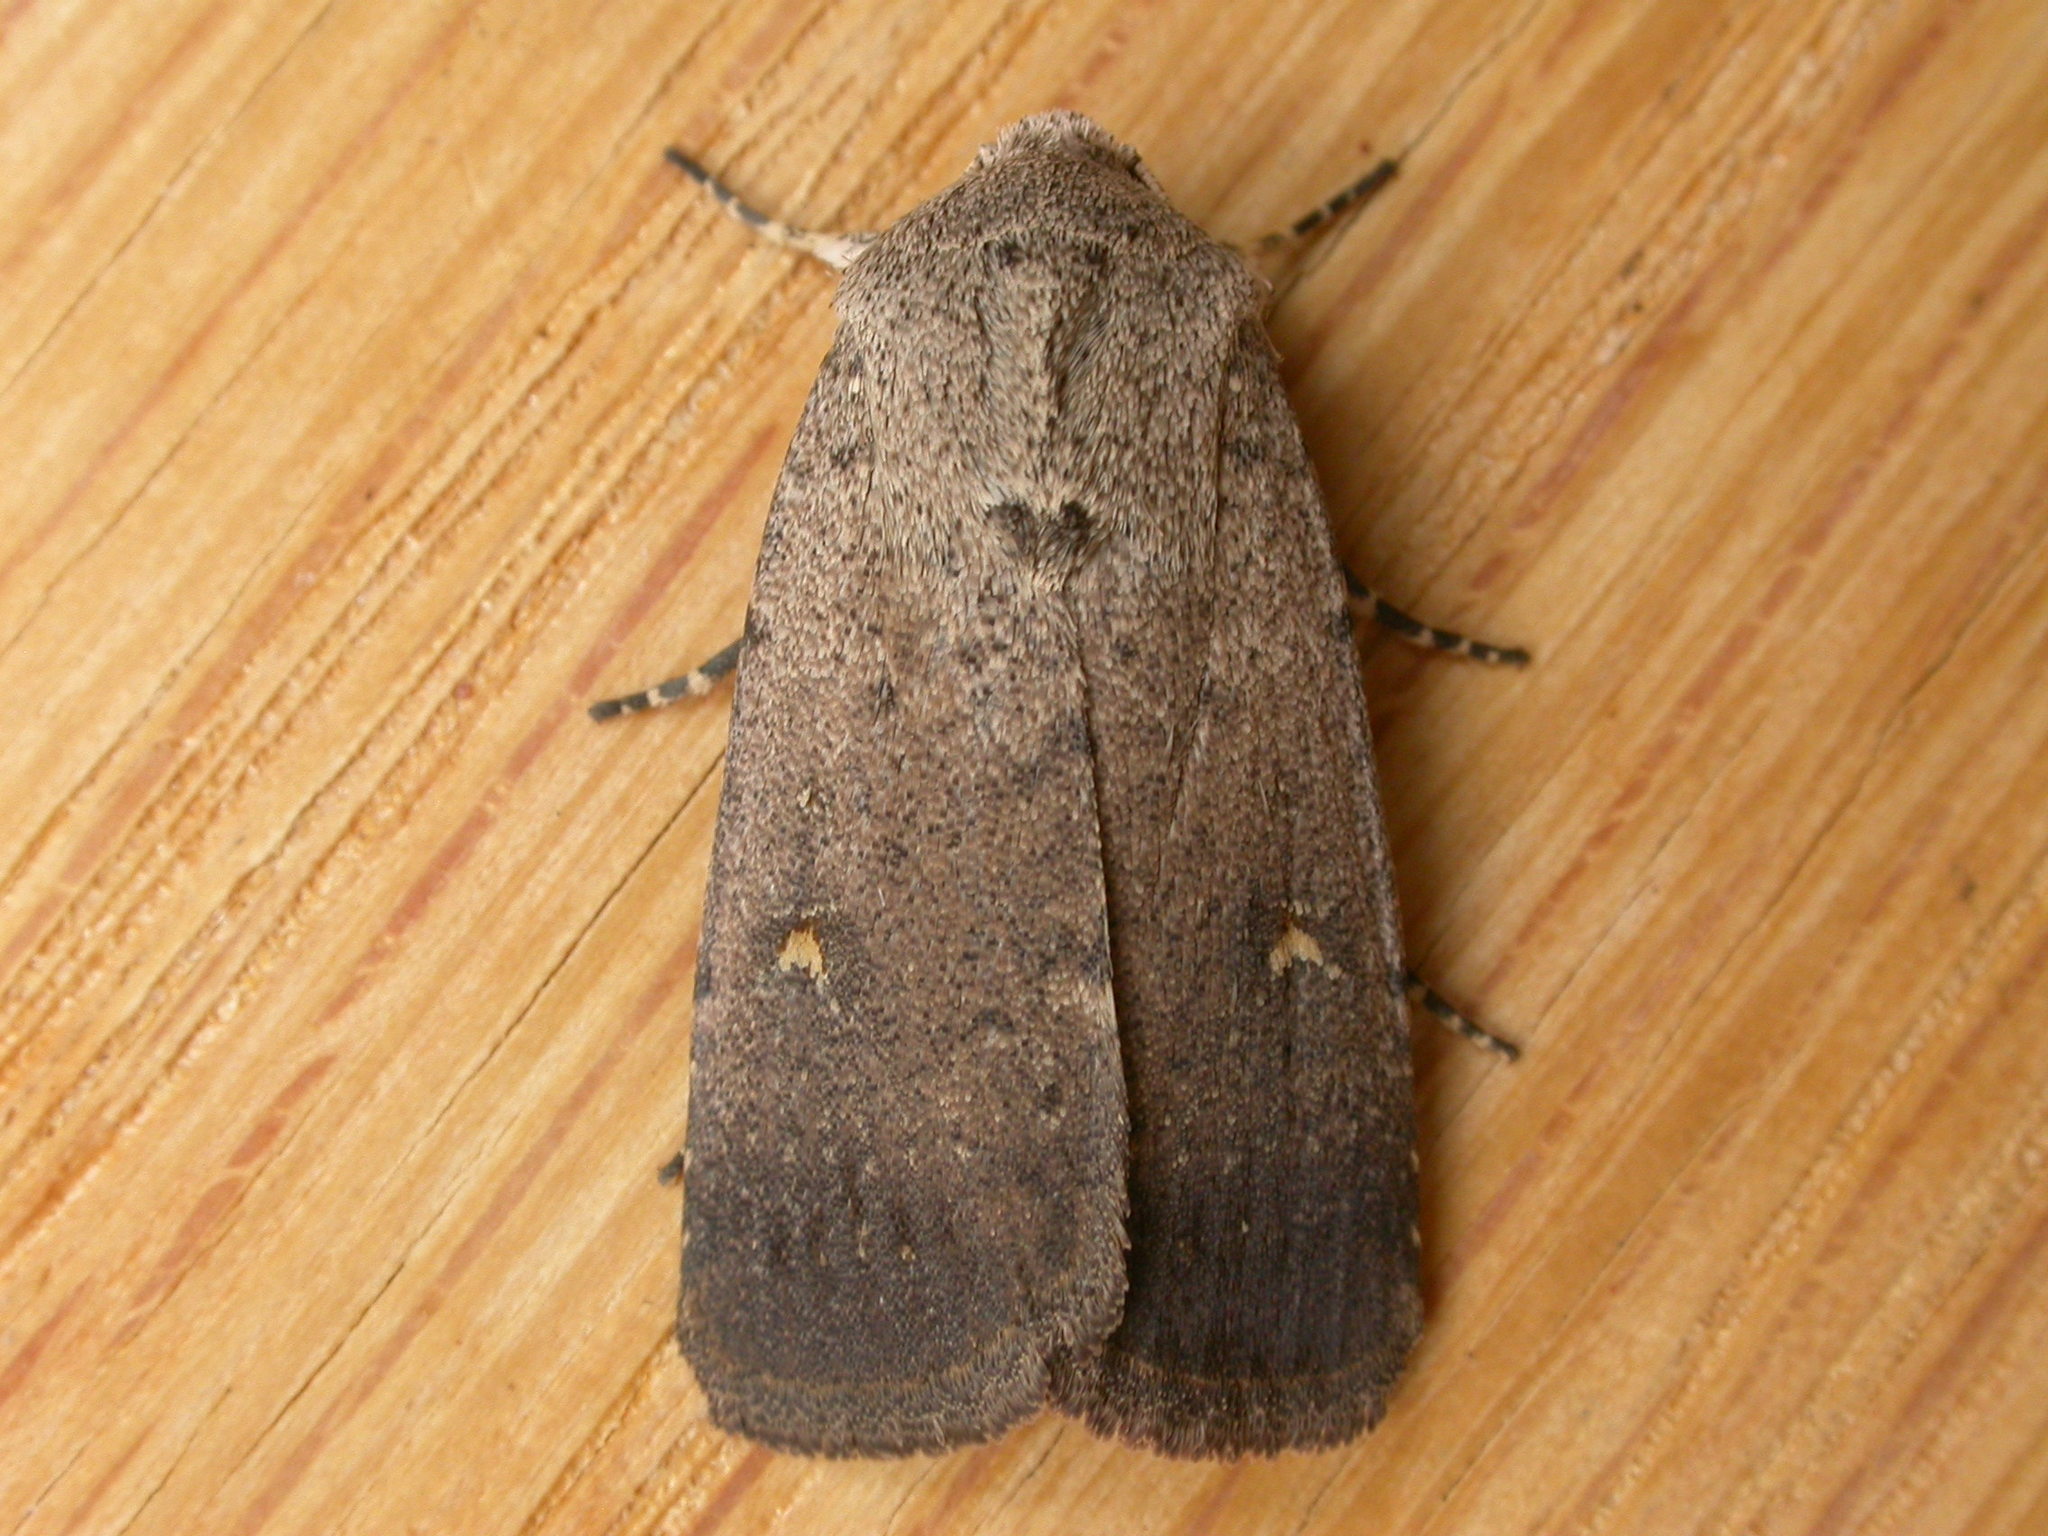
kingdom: Animalia
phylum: Arthropoda
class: Insecta
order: Lepidoptera
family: Noctuidae
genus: Proteuxoa
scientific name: Proteuxoa tibiata
